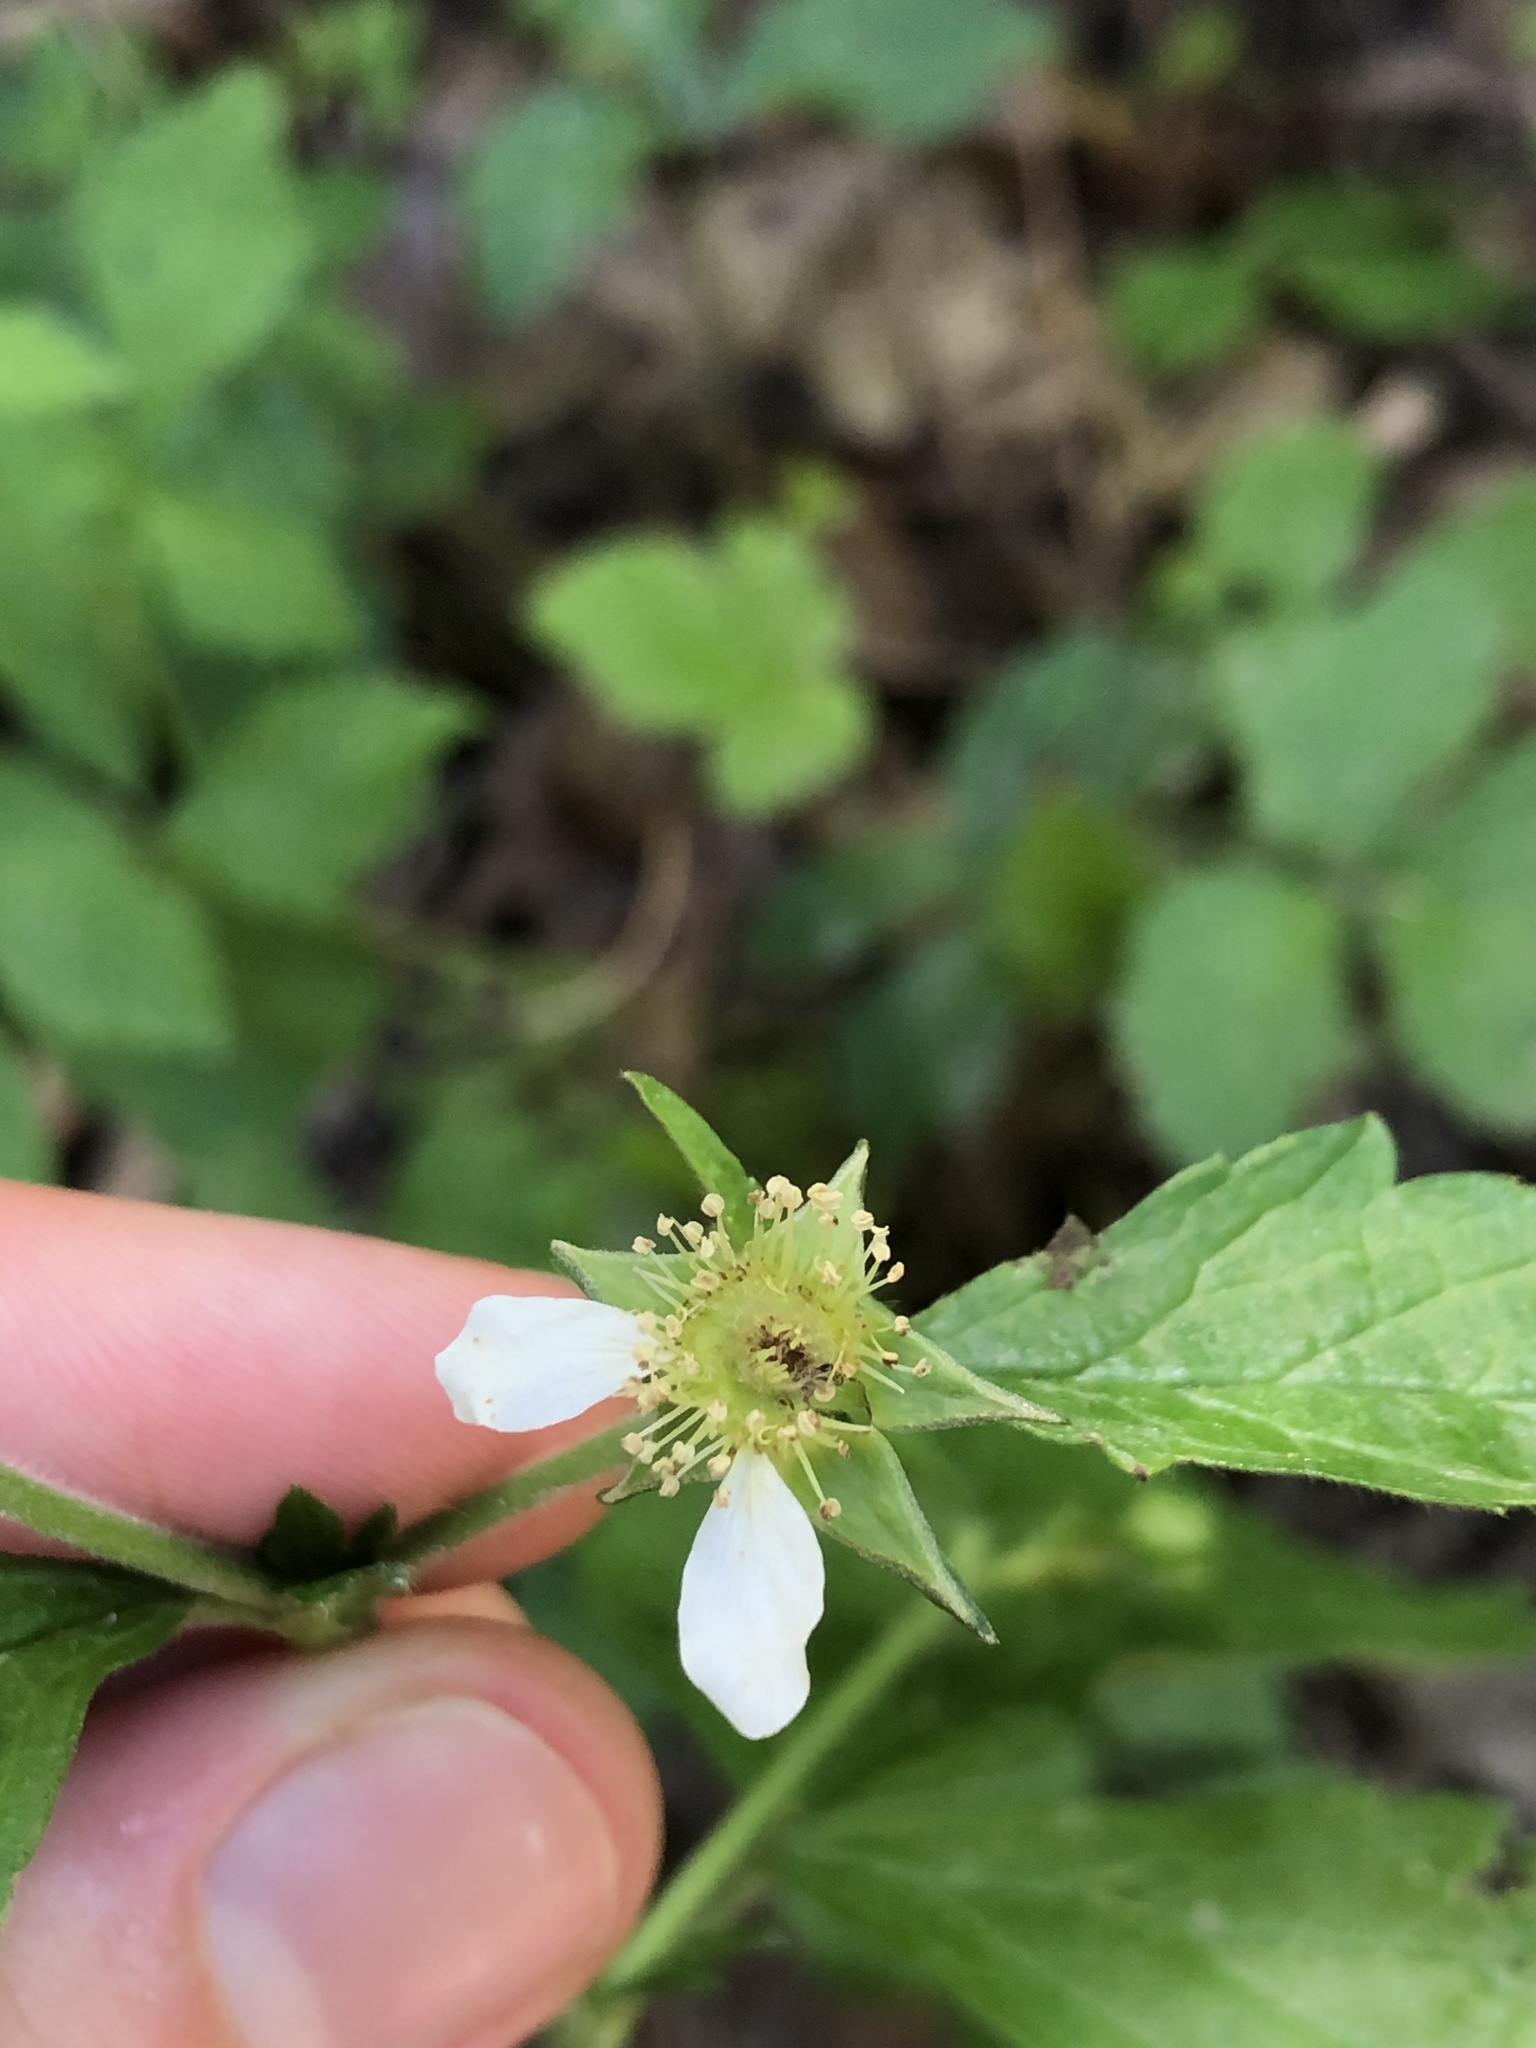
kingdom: Plantae
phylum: Tracheophyta
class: Magnoliopsida
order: Rosales
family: Rosaceae
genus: Geum
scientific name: Geum canadense
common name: White avens
